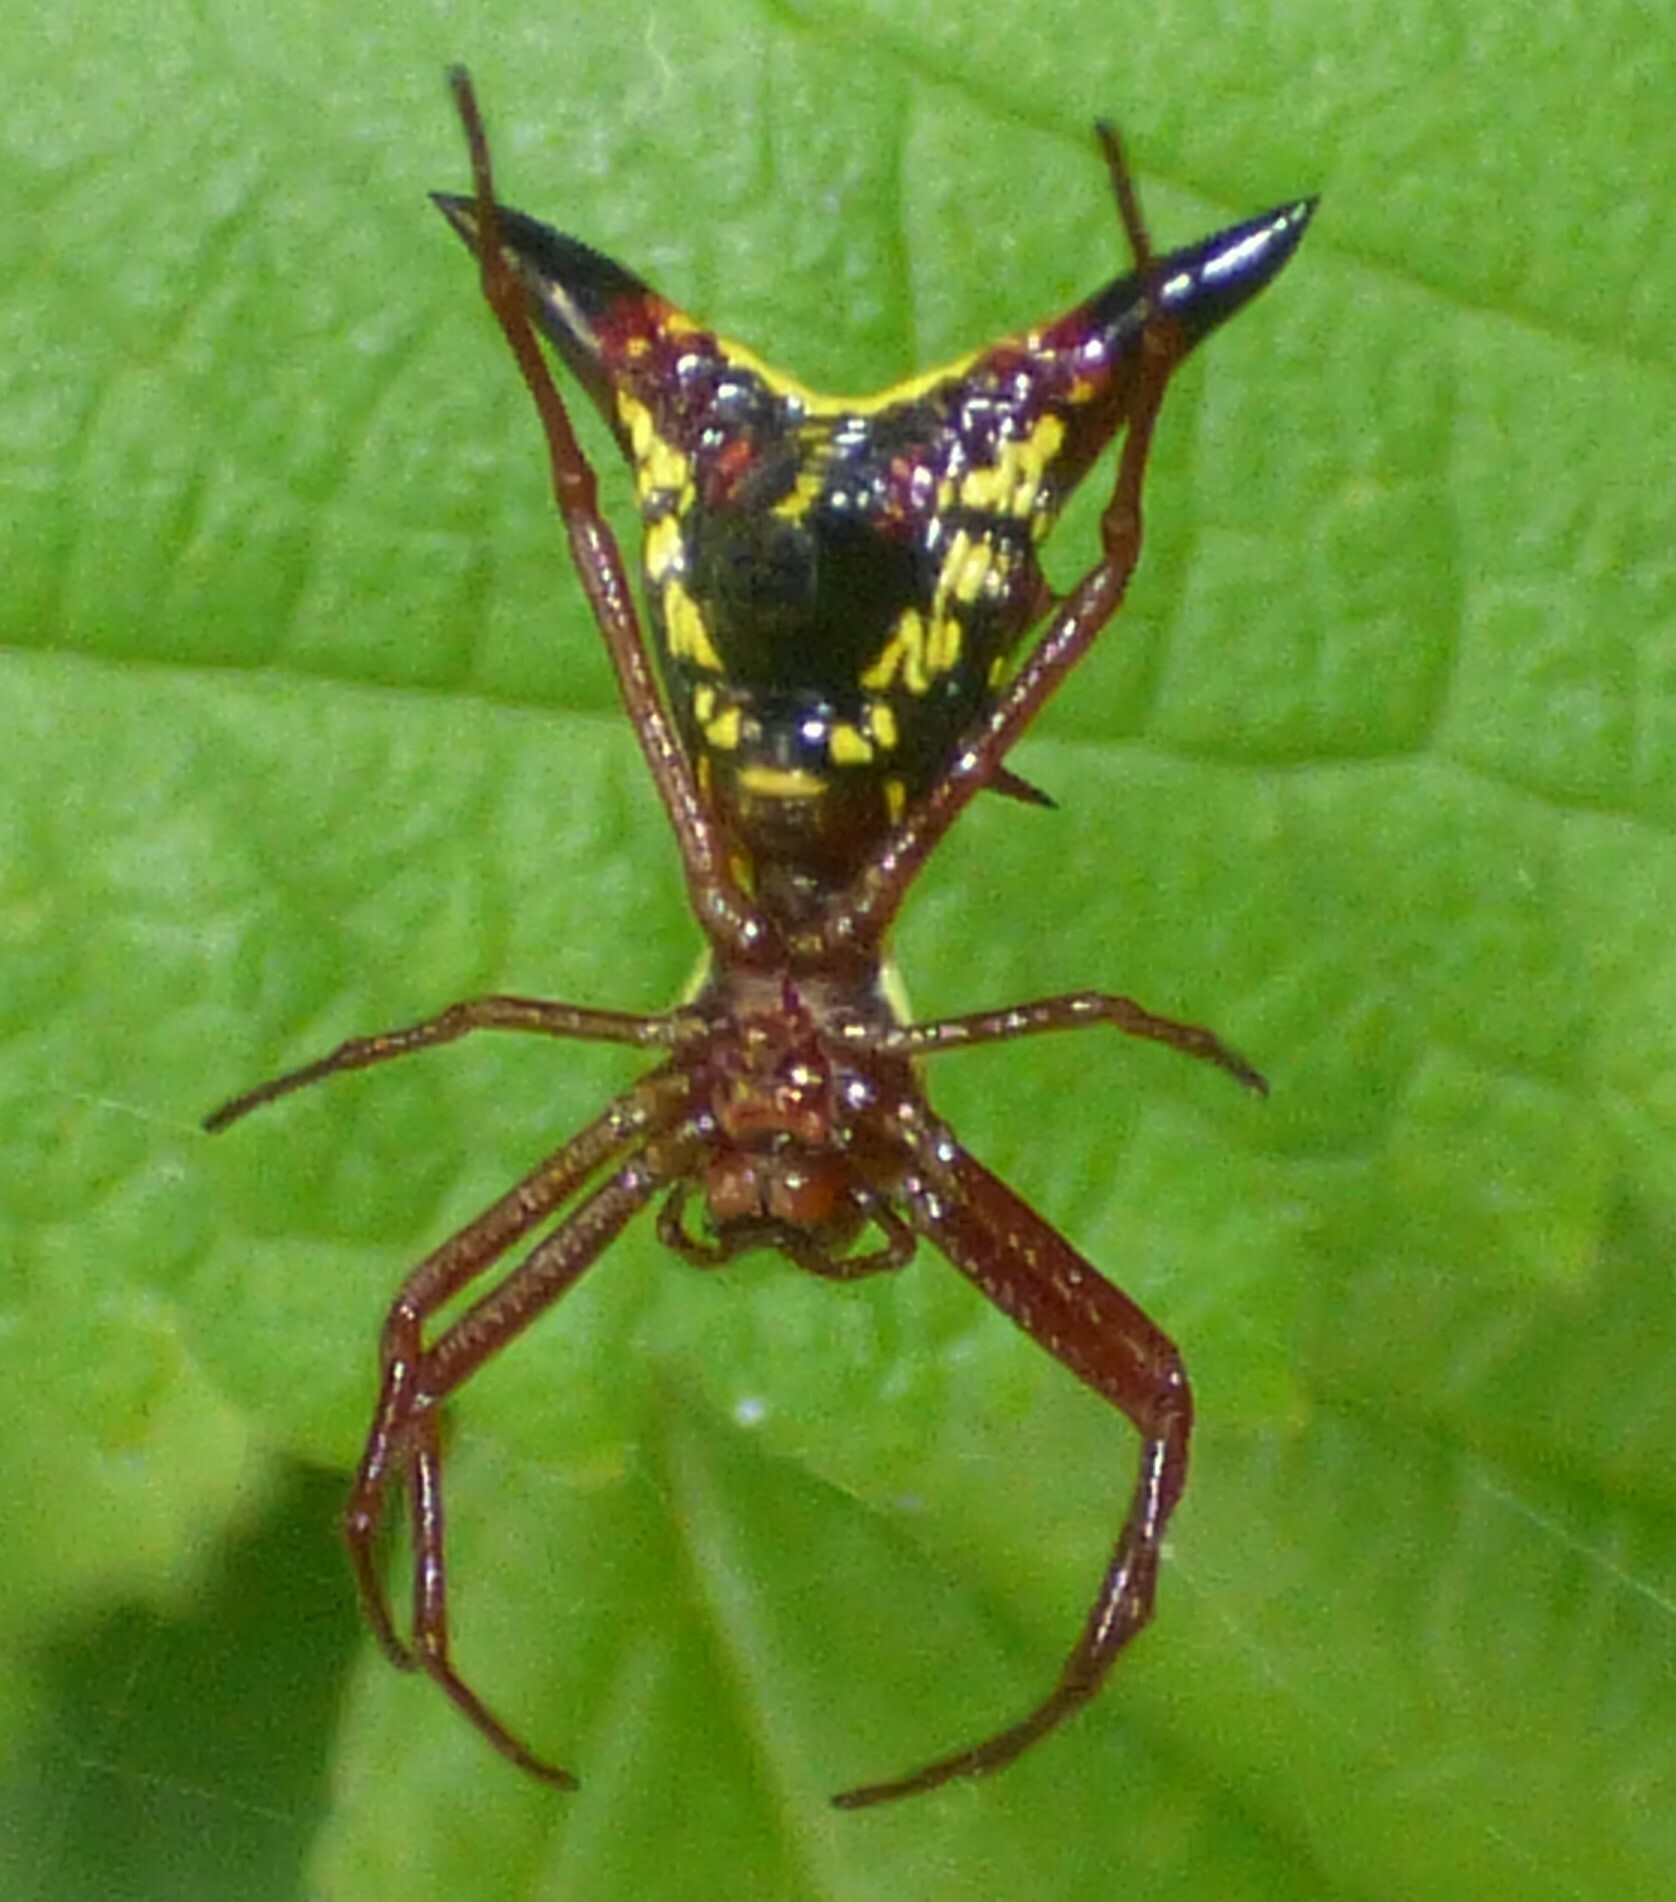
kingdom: Animalia
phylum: Arthropoda
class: Arachnida
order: Araneae
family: Araneidae
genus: Micrathena
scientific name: Micrathena sagittata
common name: Orb weavers
